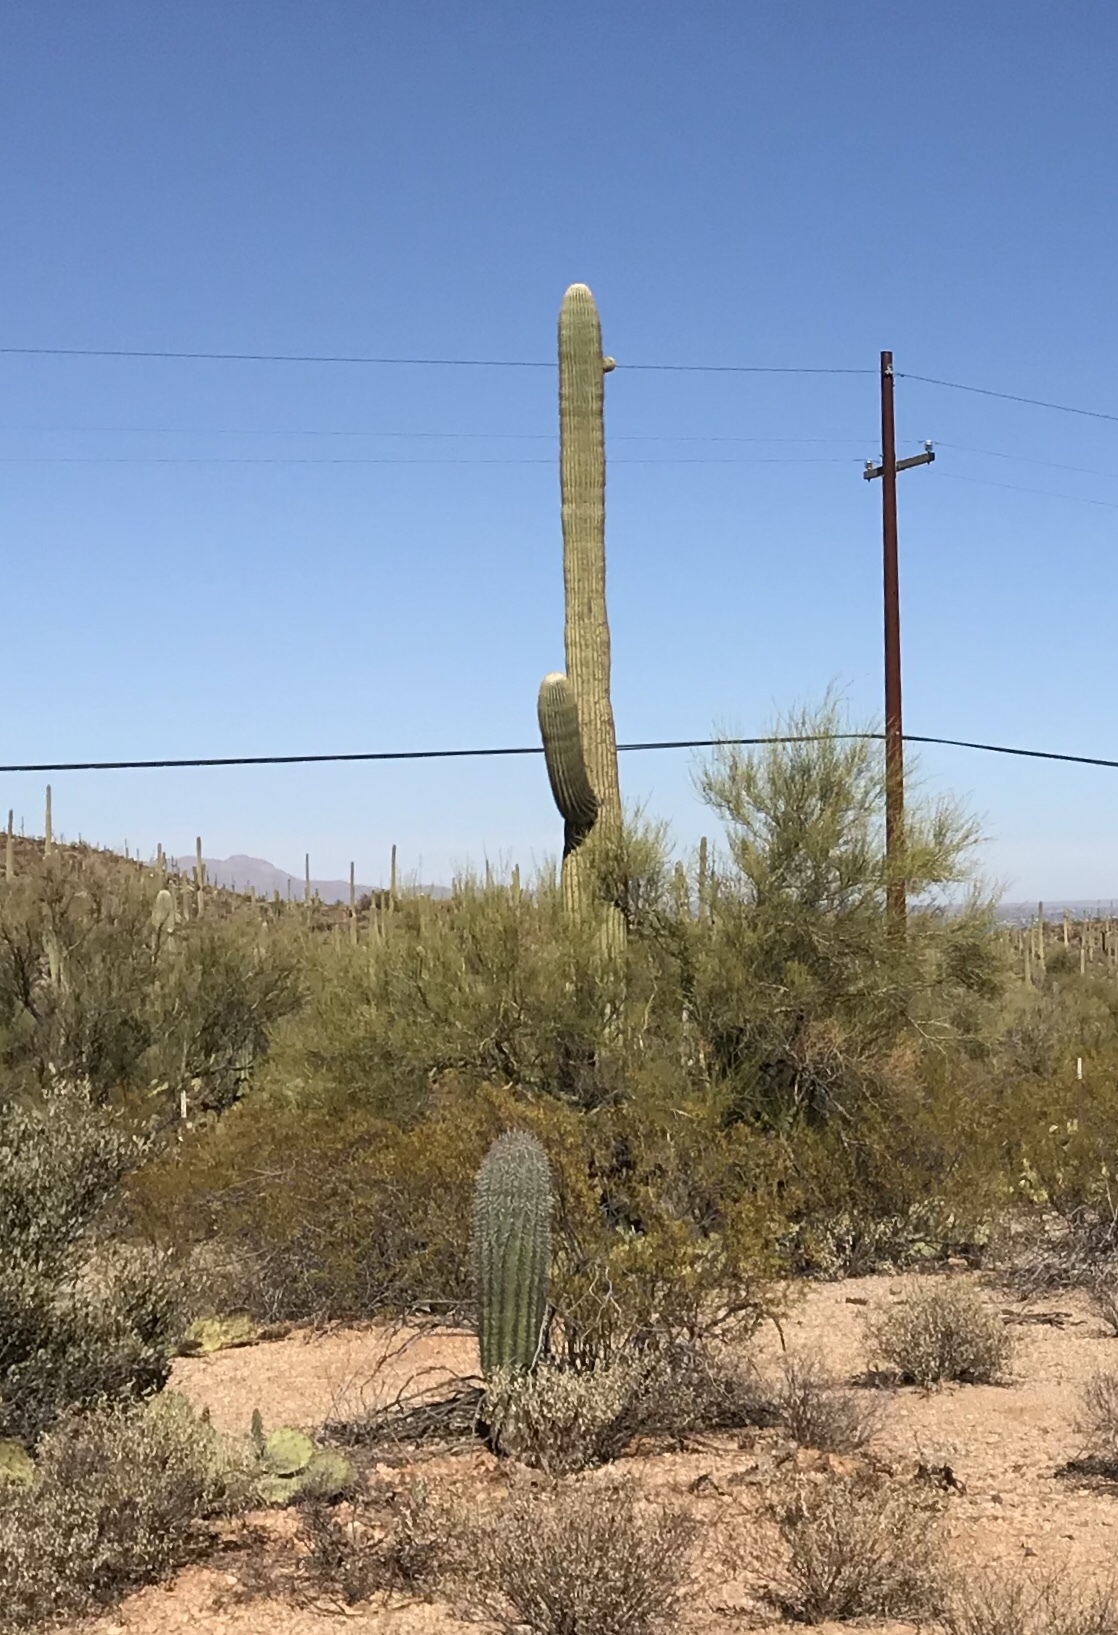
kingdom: Plantae
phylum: Tracheophyta
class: Magnoliopsida
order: Caryophyllales
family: Cactaceae
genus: Carnegiea
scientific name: Carnegiea gigantea
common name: Saguaro
